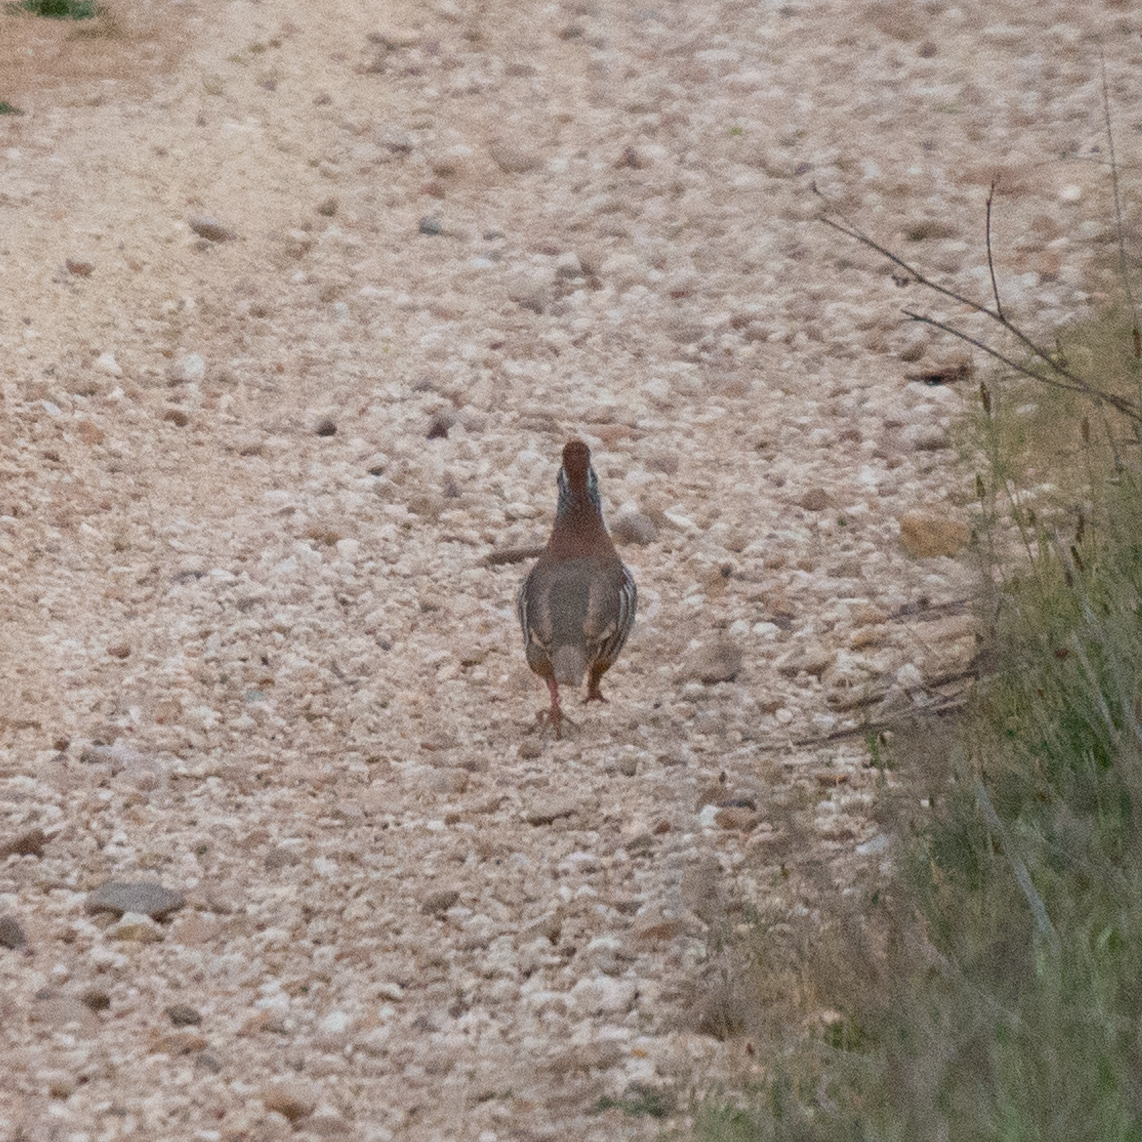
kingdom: Animalia
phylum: Chordata
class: Aves
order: Galliformes
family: Phasianidae
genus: Alectoris
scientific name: Alectoris rufa
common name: Red-legged partridge
